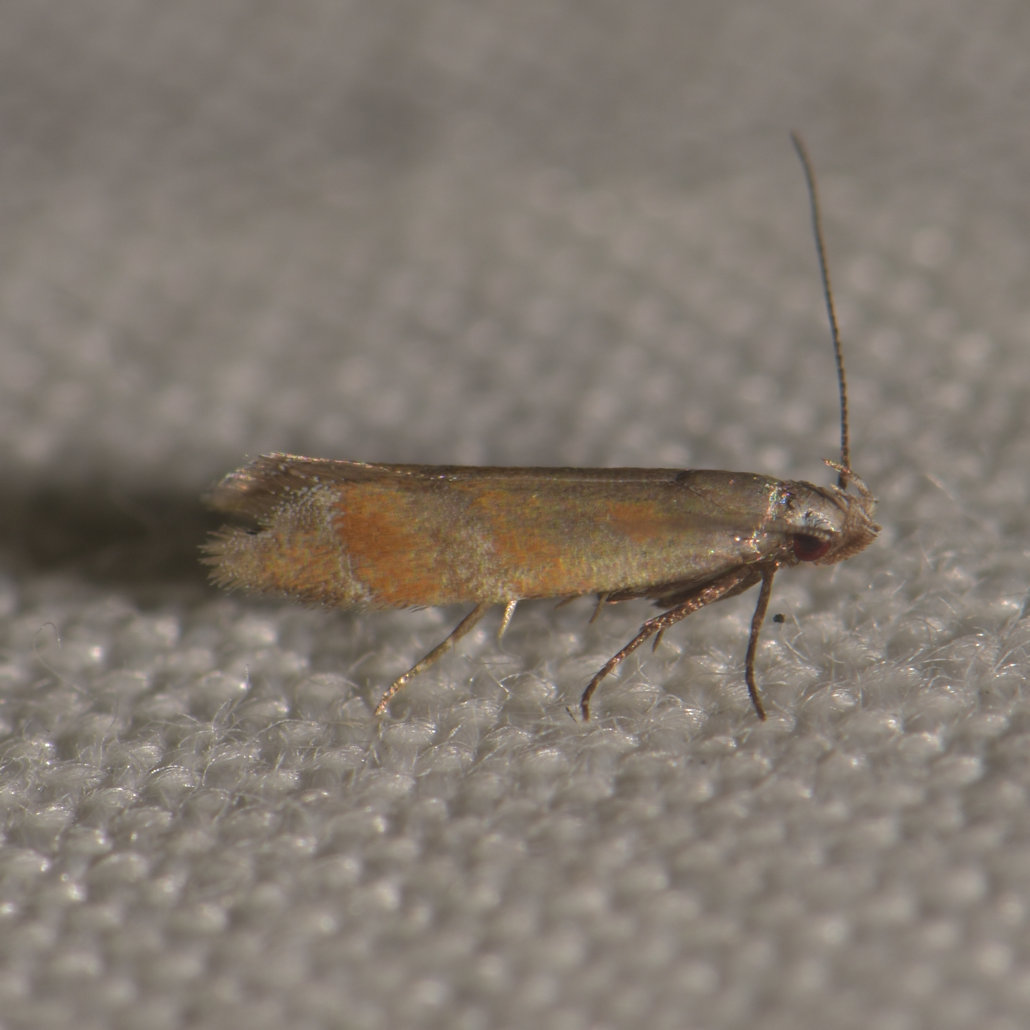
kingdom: Animalia
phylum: Arthropoda
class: Insecta
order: Lepidoptera
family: Gelechiidae
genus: Battaristis
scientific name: Battaristis vittella
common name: Orange stripe-backed moth
